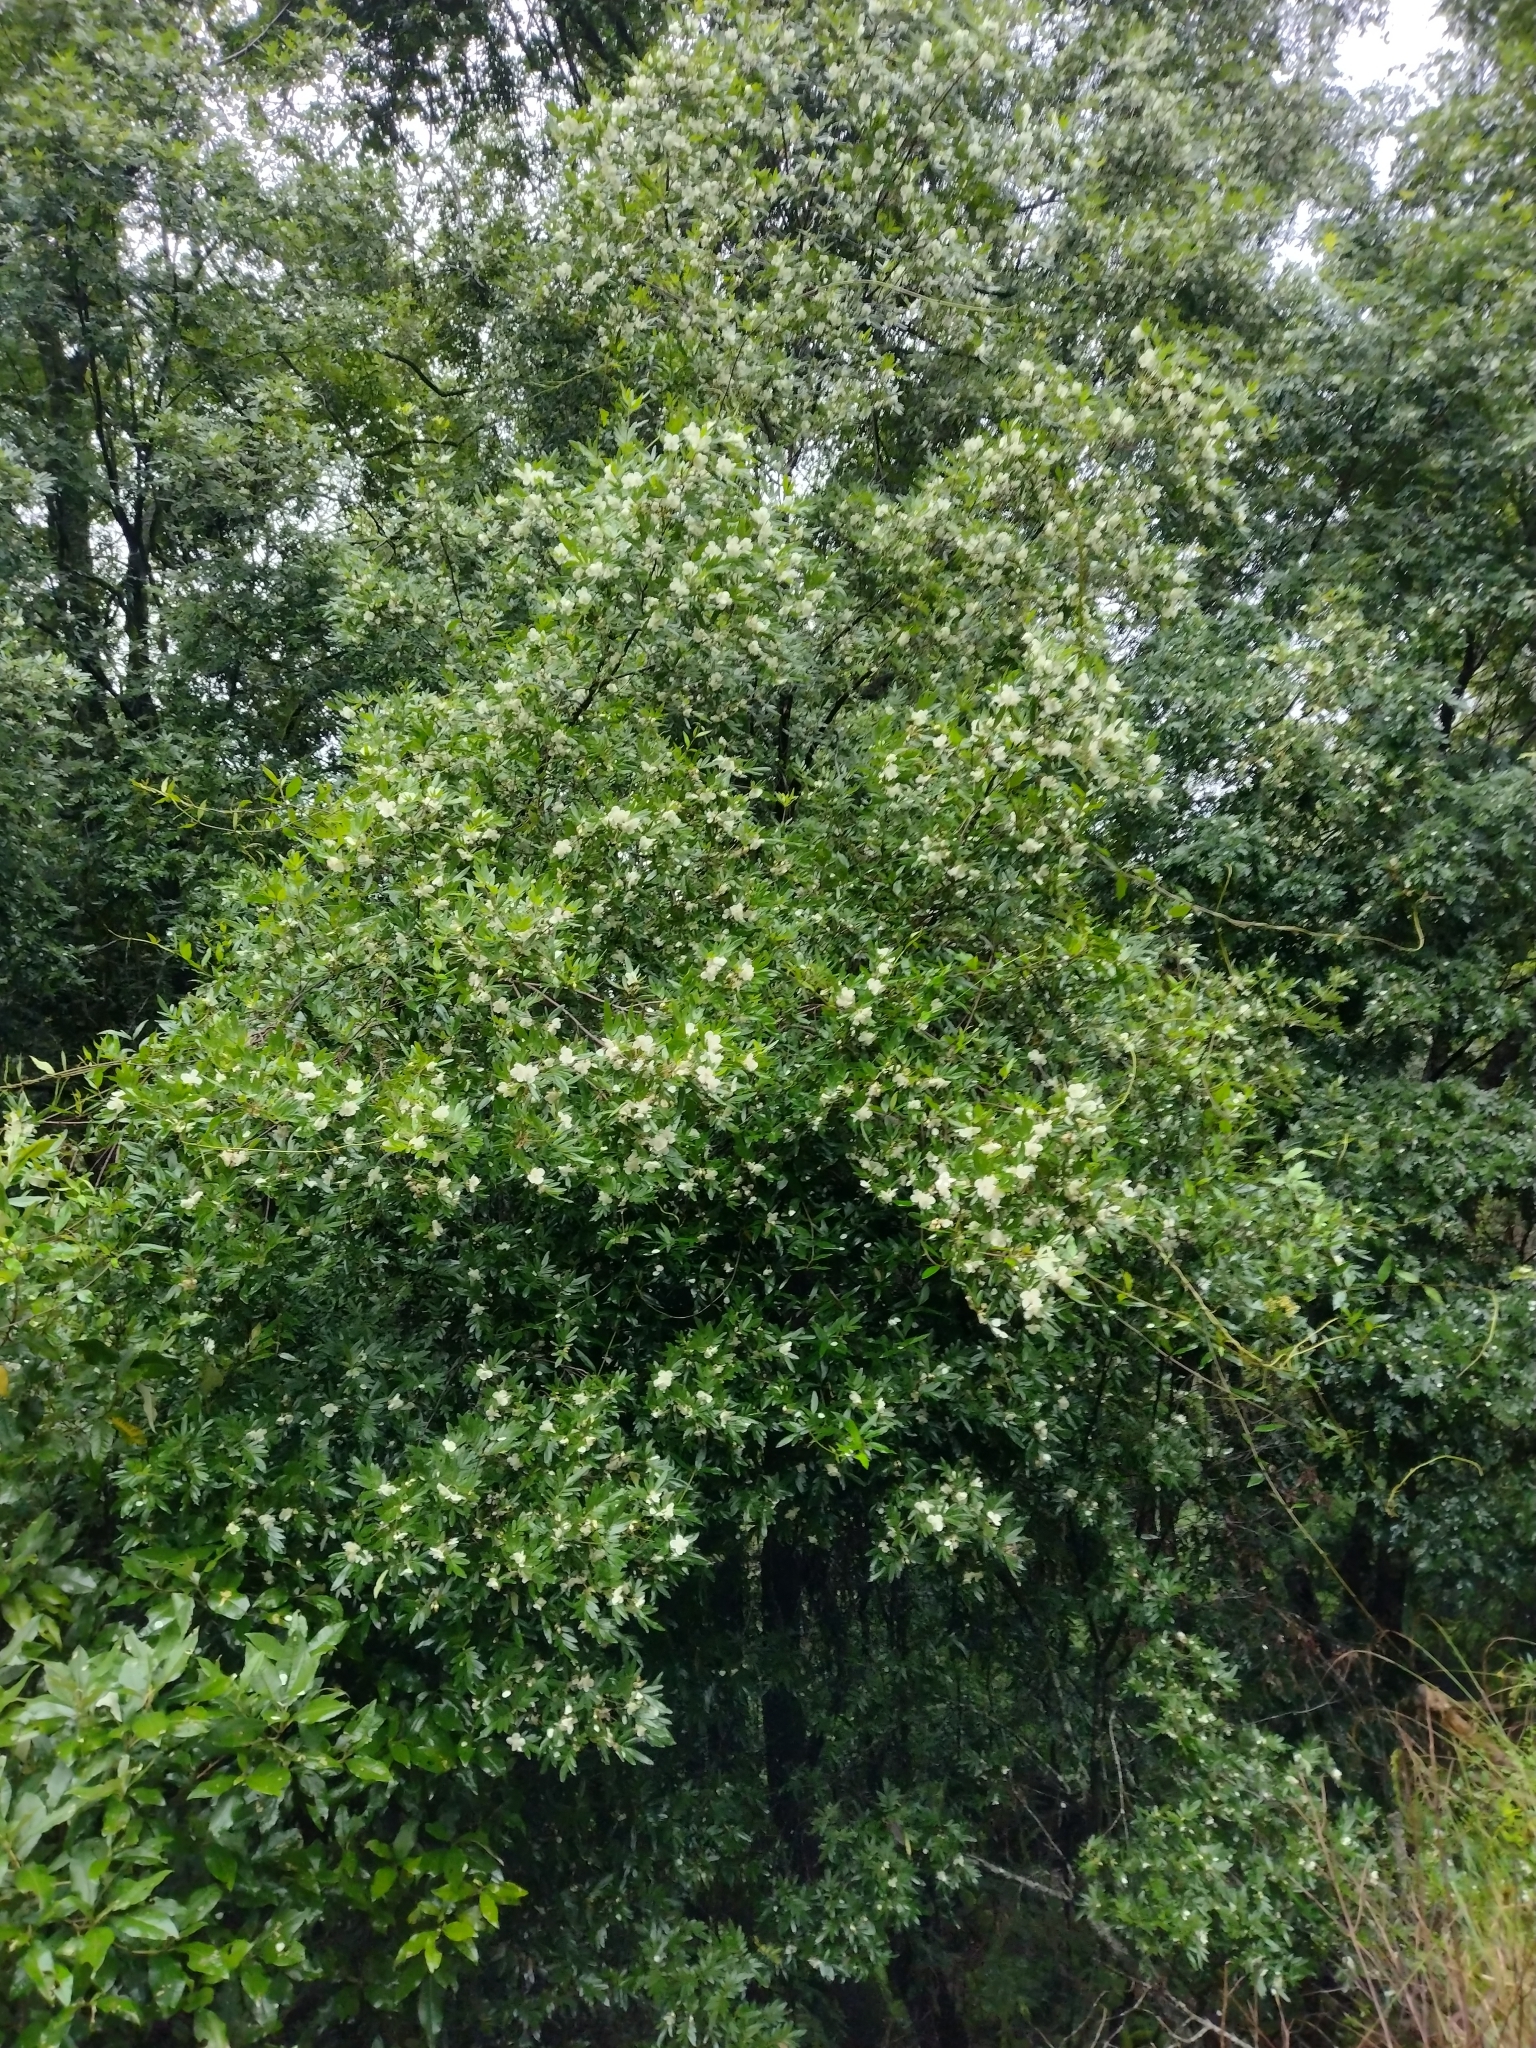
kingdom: Plantae
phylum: Tracheophyta
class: Magnoliopsida
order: Oxalidales
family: Cunoniaceae
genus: Eucryphia
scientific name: Eucryphia moorei
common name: Acacia-plum
